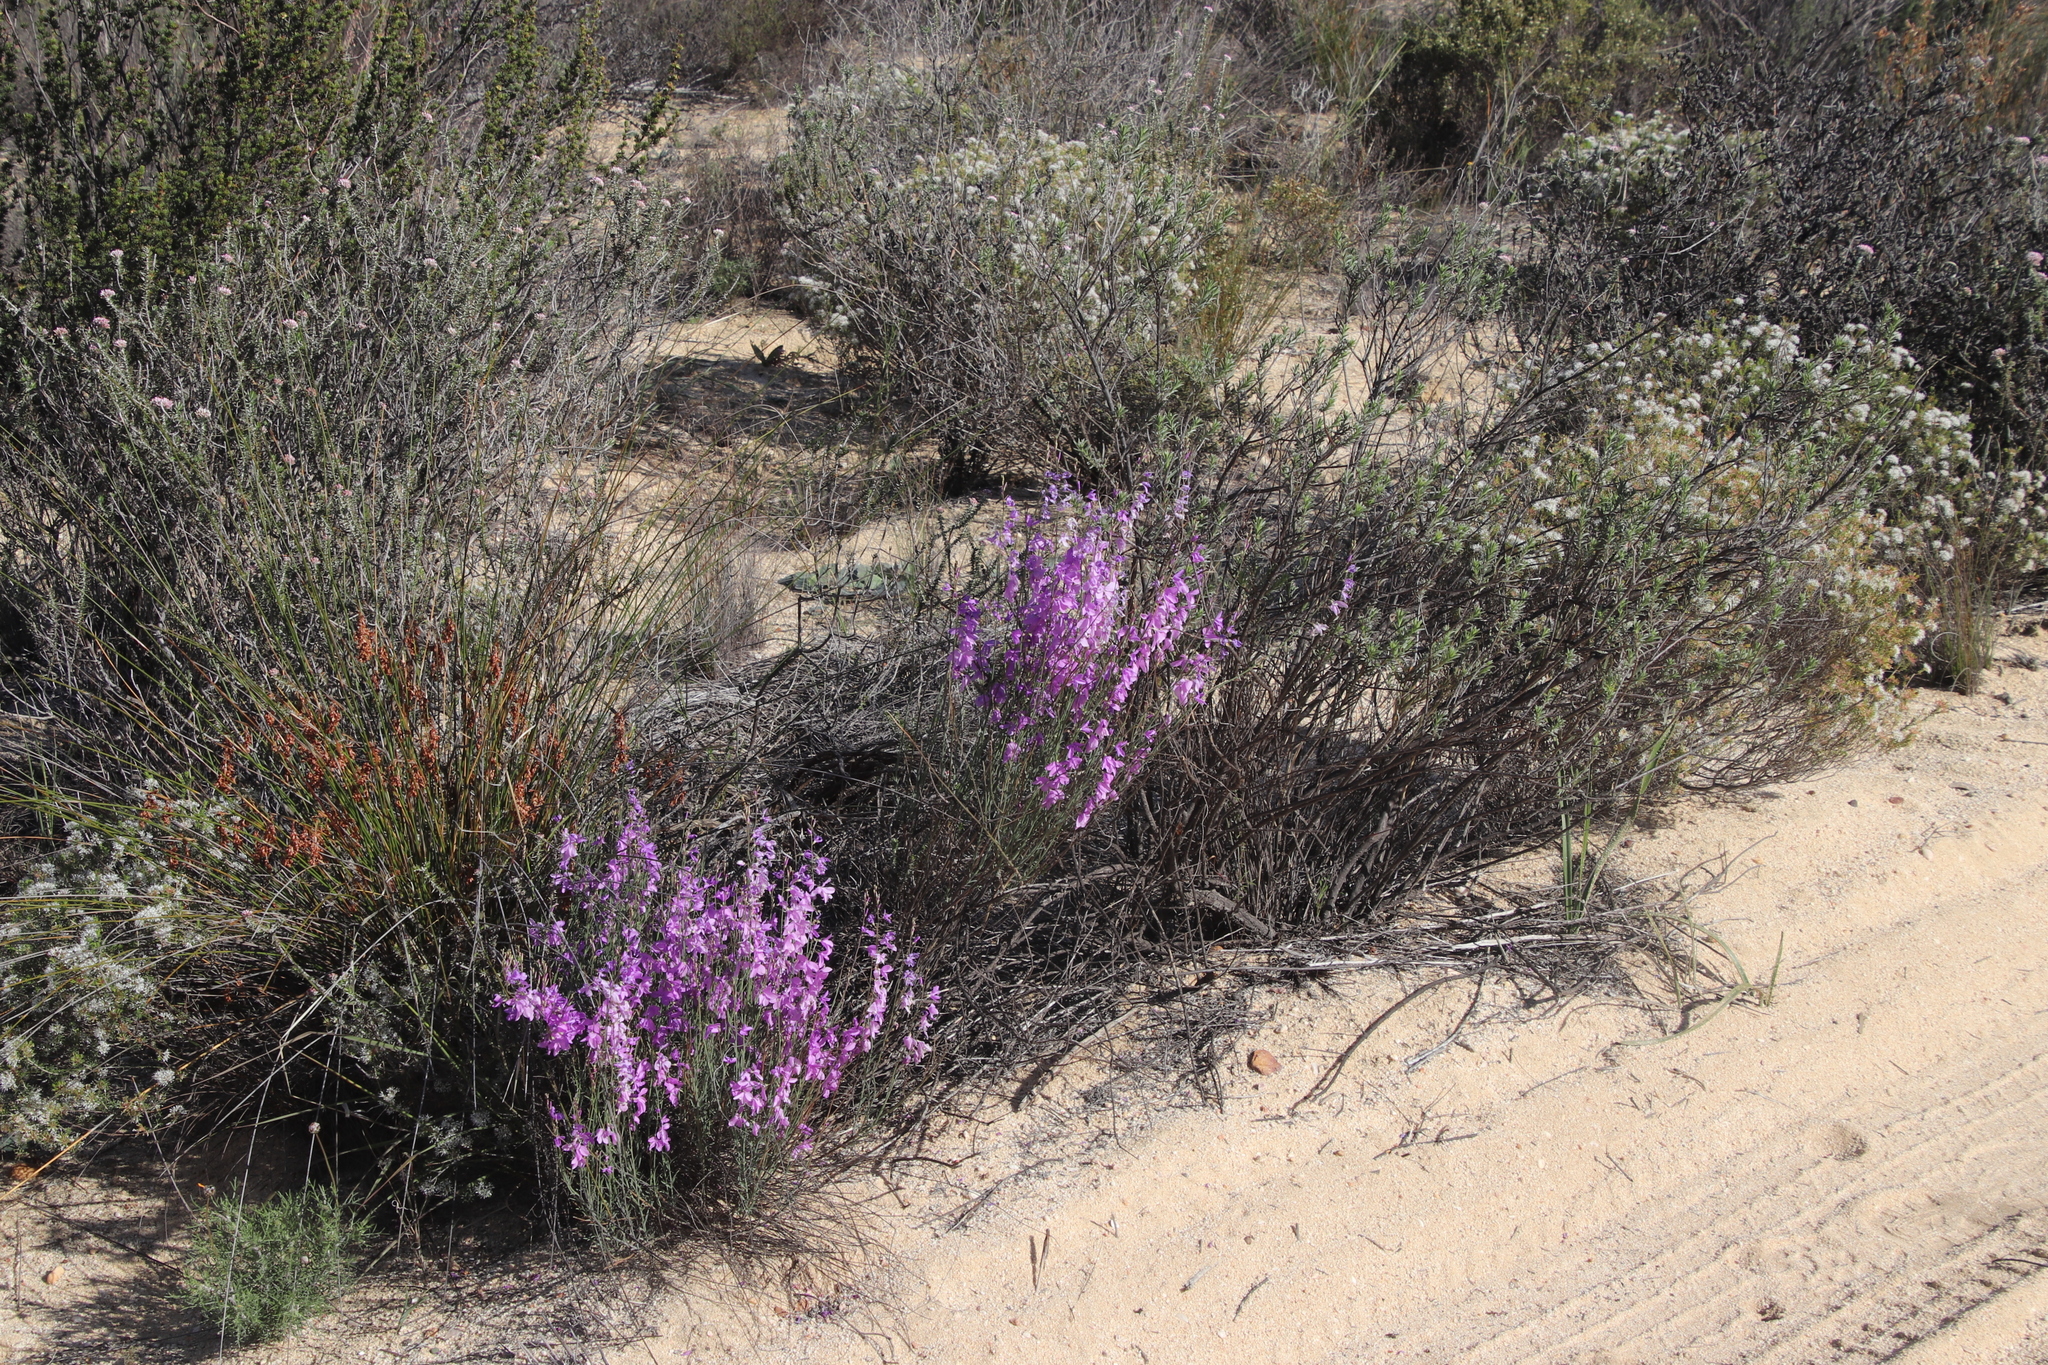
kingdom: Plantae
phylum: Tracheophyta
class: Magnoliopsida
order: Brassicales
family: Brassicaceae
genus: Heliophila
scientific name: Heliophila juncea
